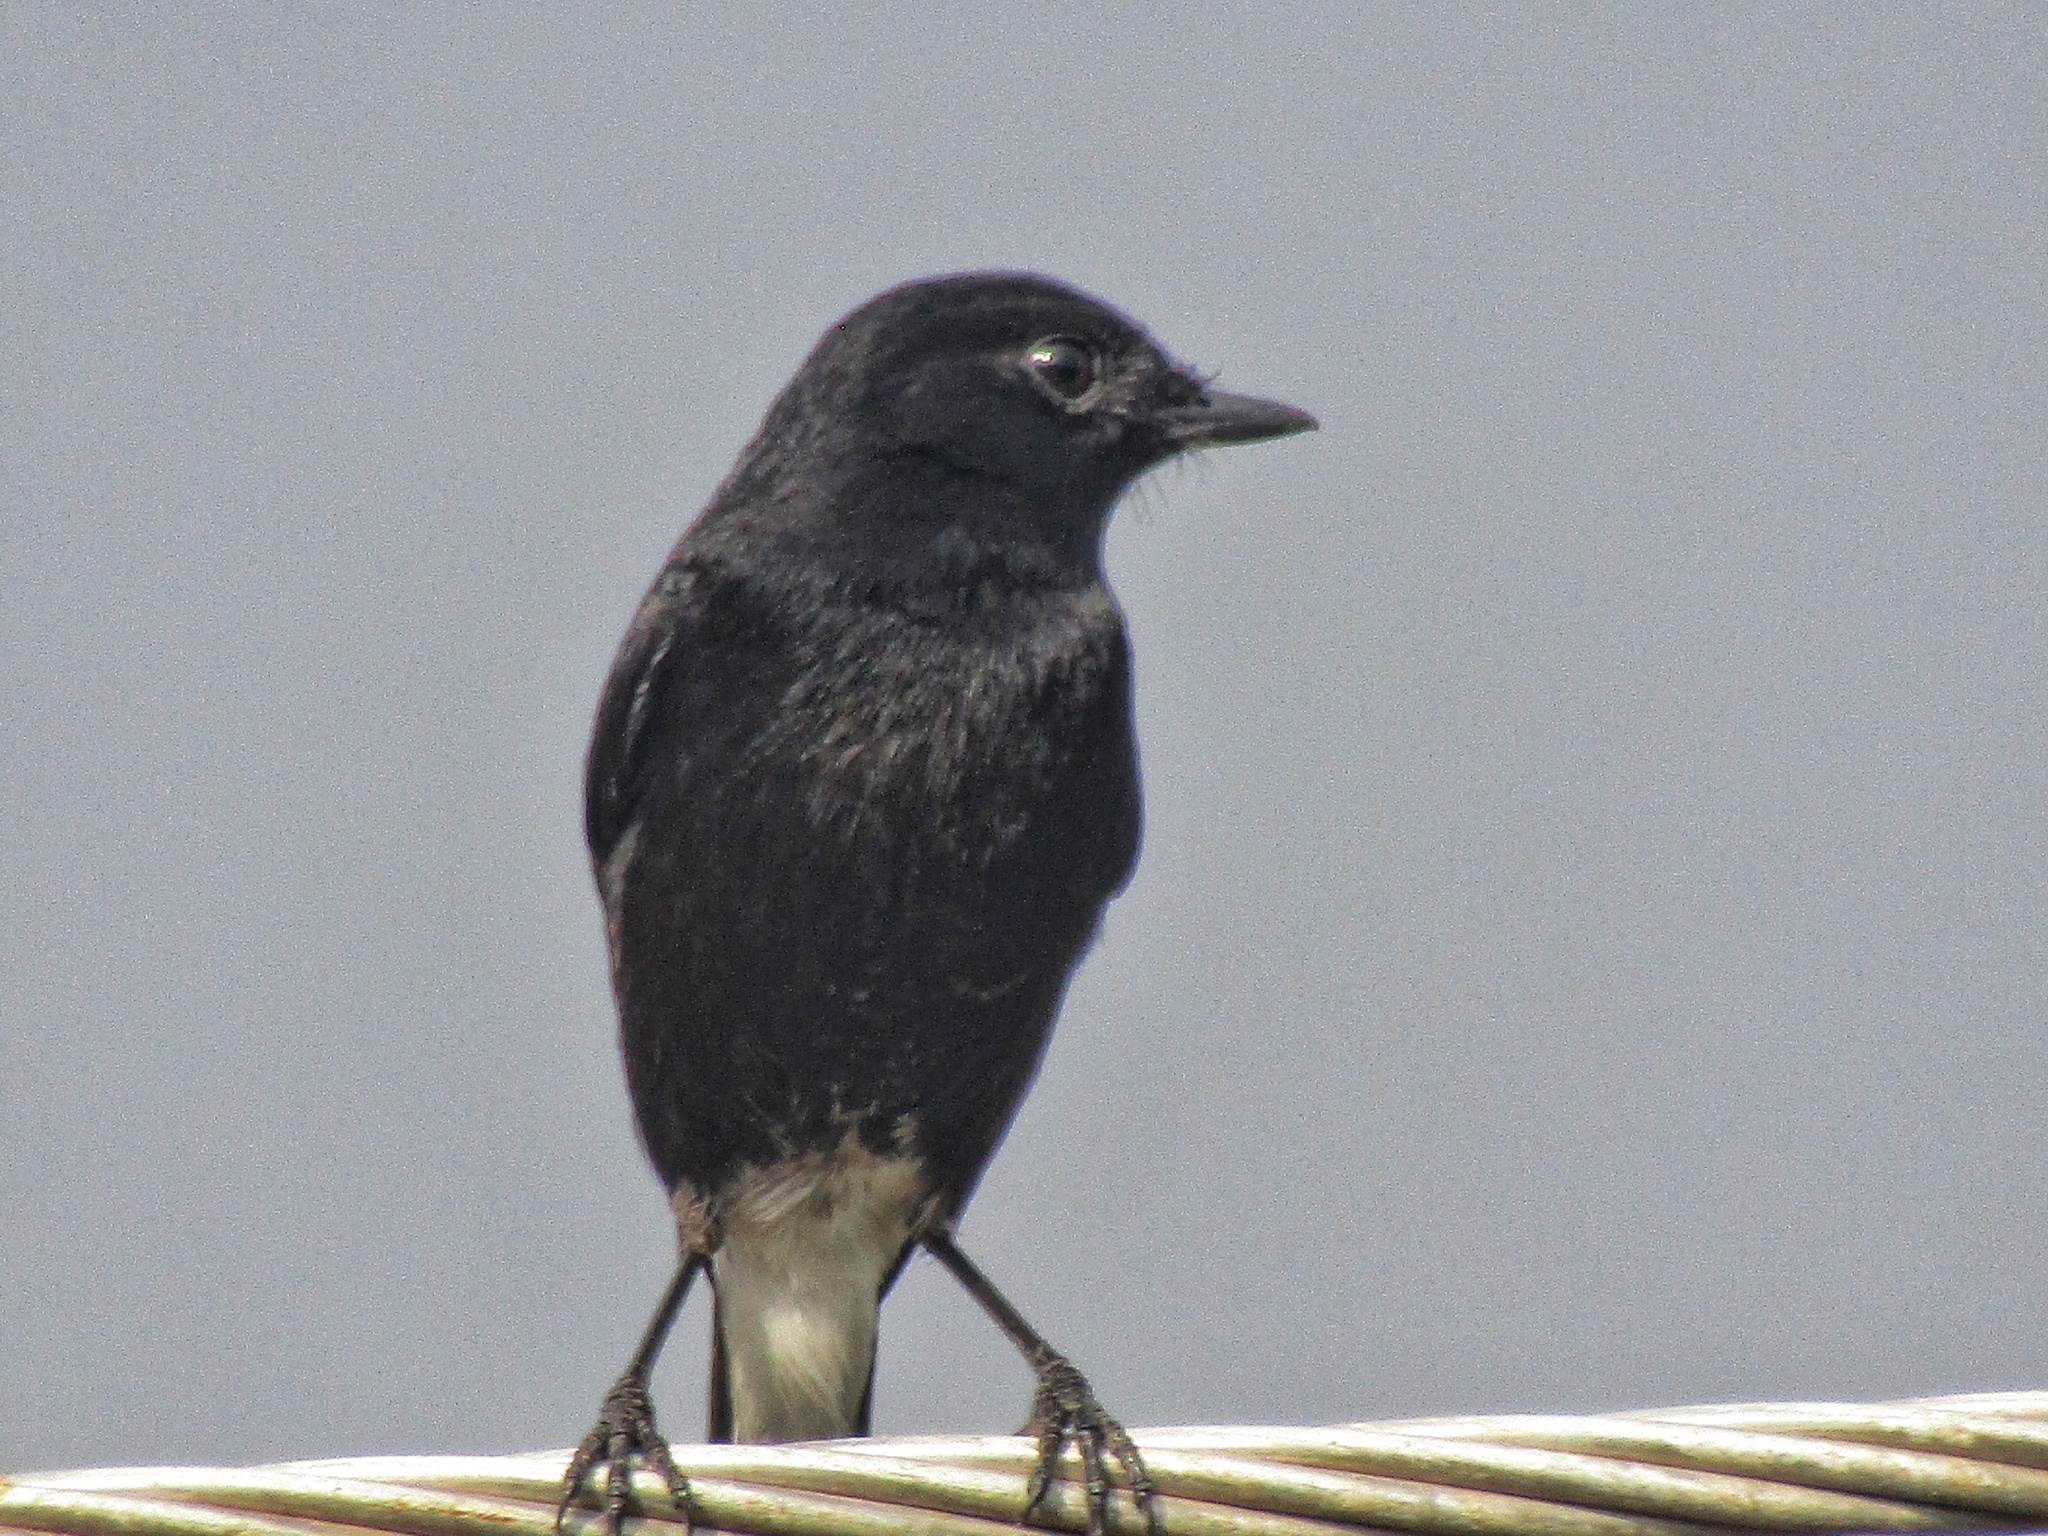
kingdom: Animalia
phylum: Chordata
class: Aves
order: Passeriformes
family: Muscicapidae
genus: Saxicola
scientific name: Saxicola caprata
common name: Pied bush chat
